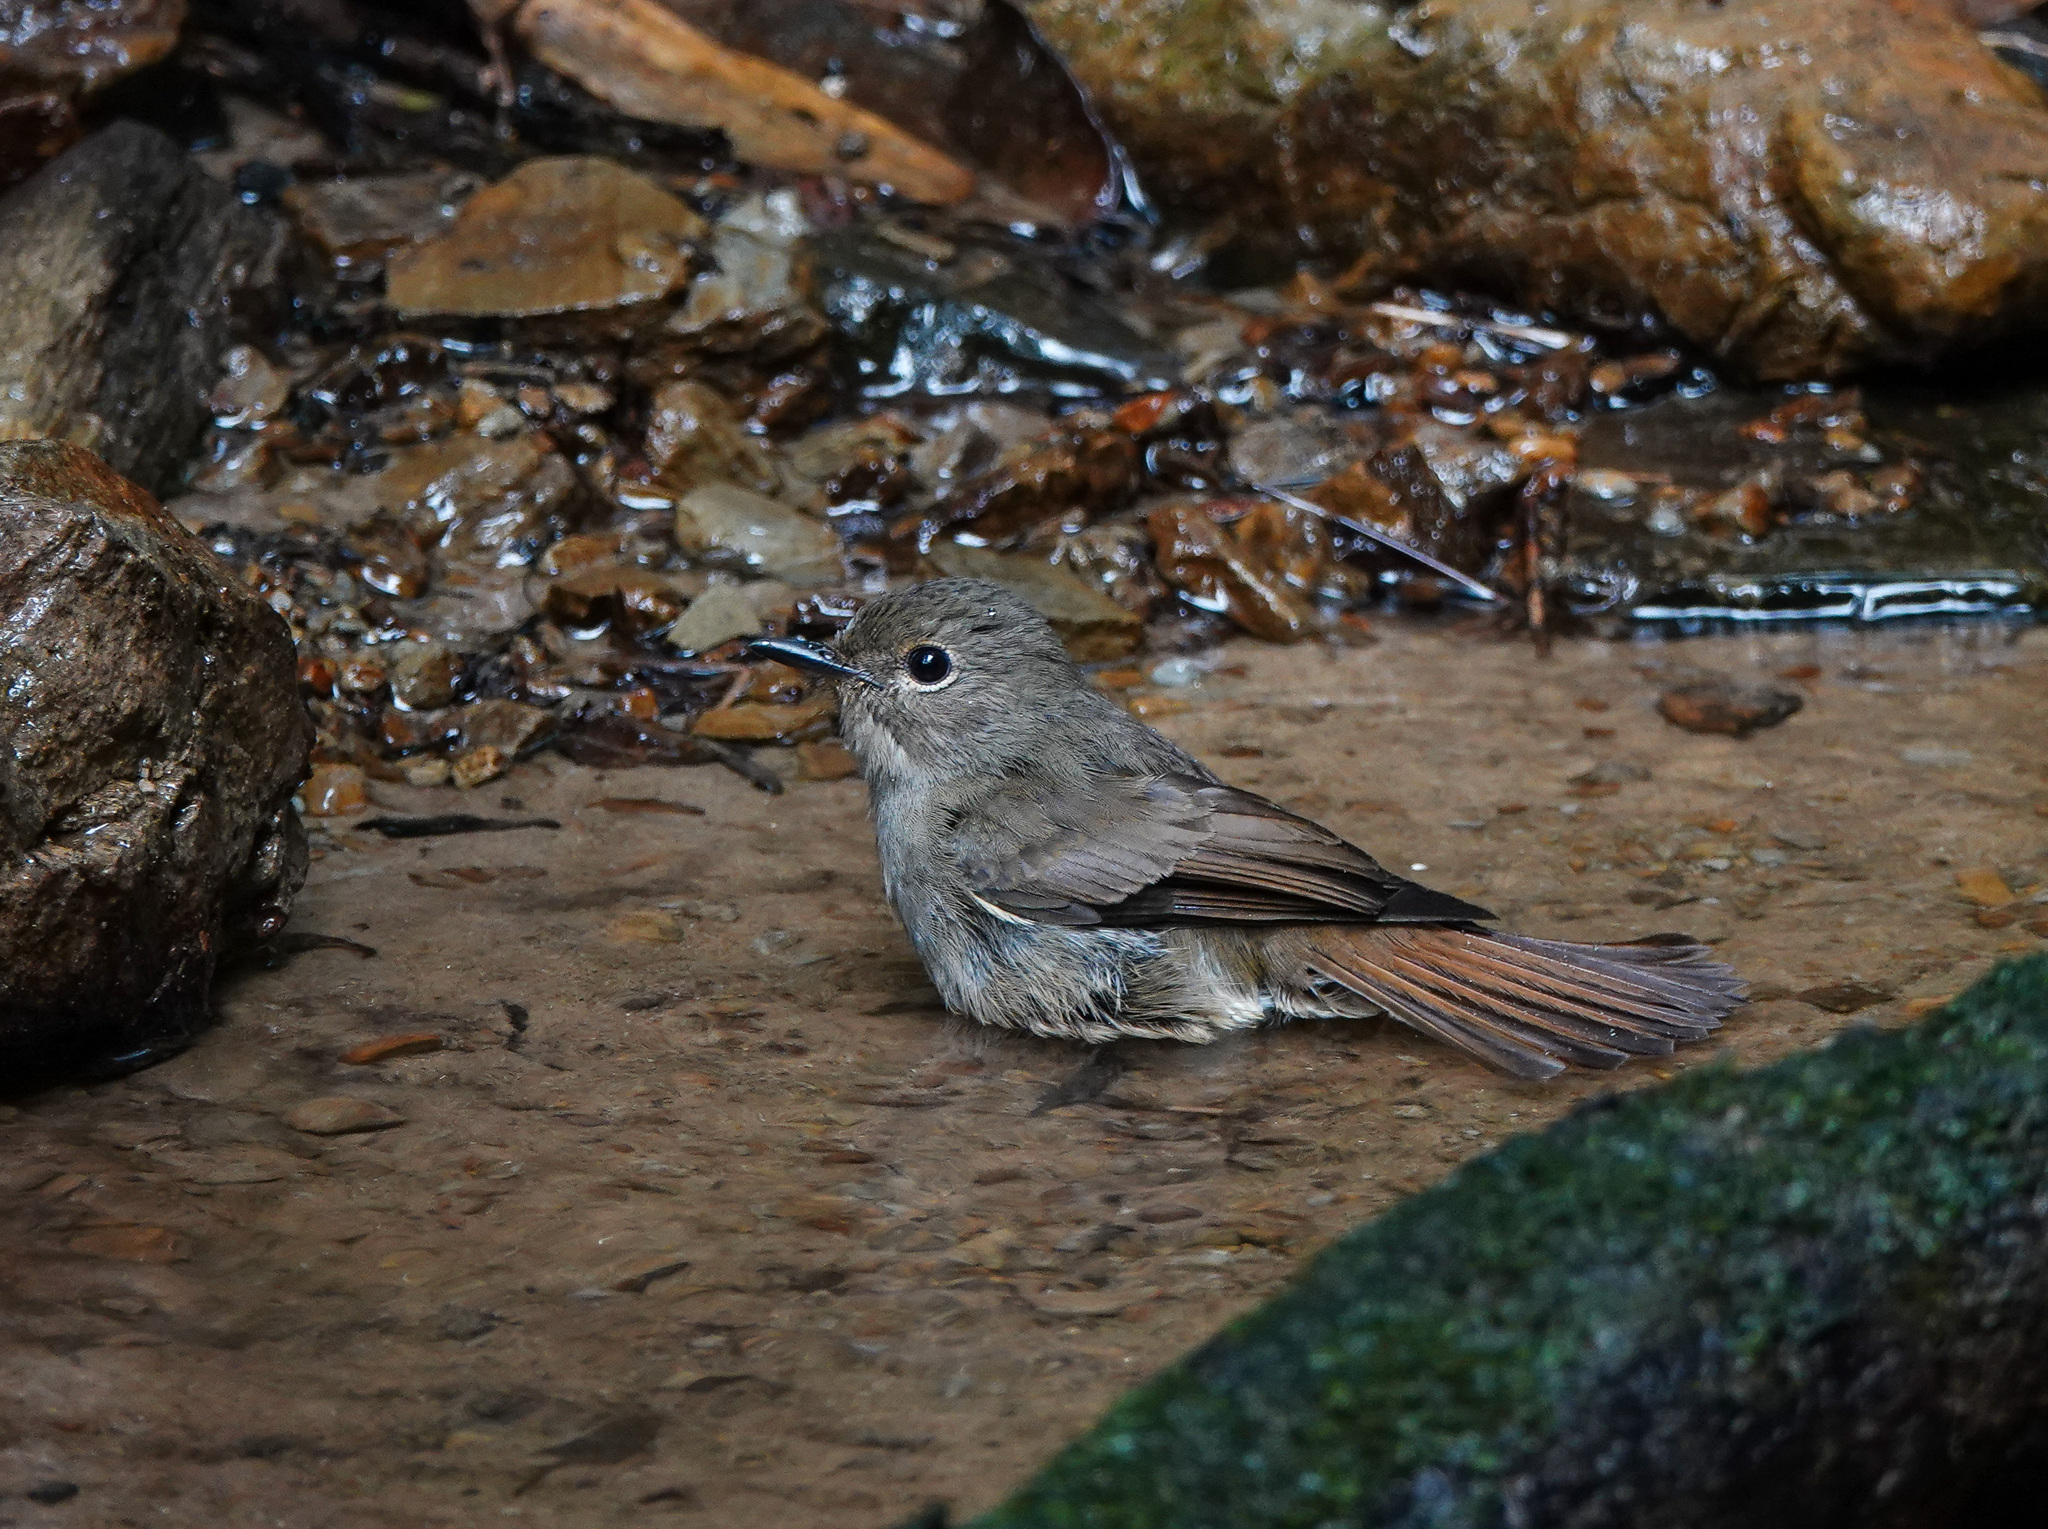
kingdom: Animalia
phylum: Chordata
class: Aves
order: Passeriformes
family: Muscicapidae
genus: Cyornis
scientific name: Cyornis unicolor
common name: Pale blue flycatcher
